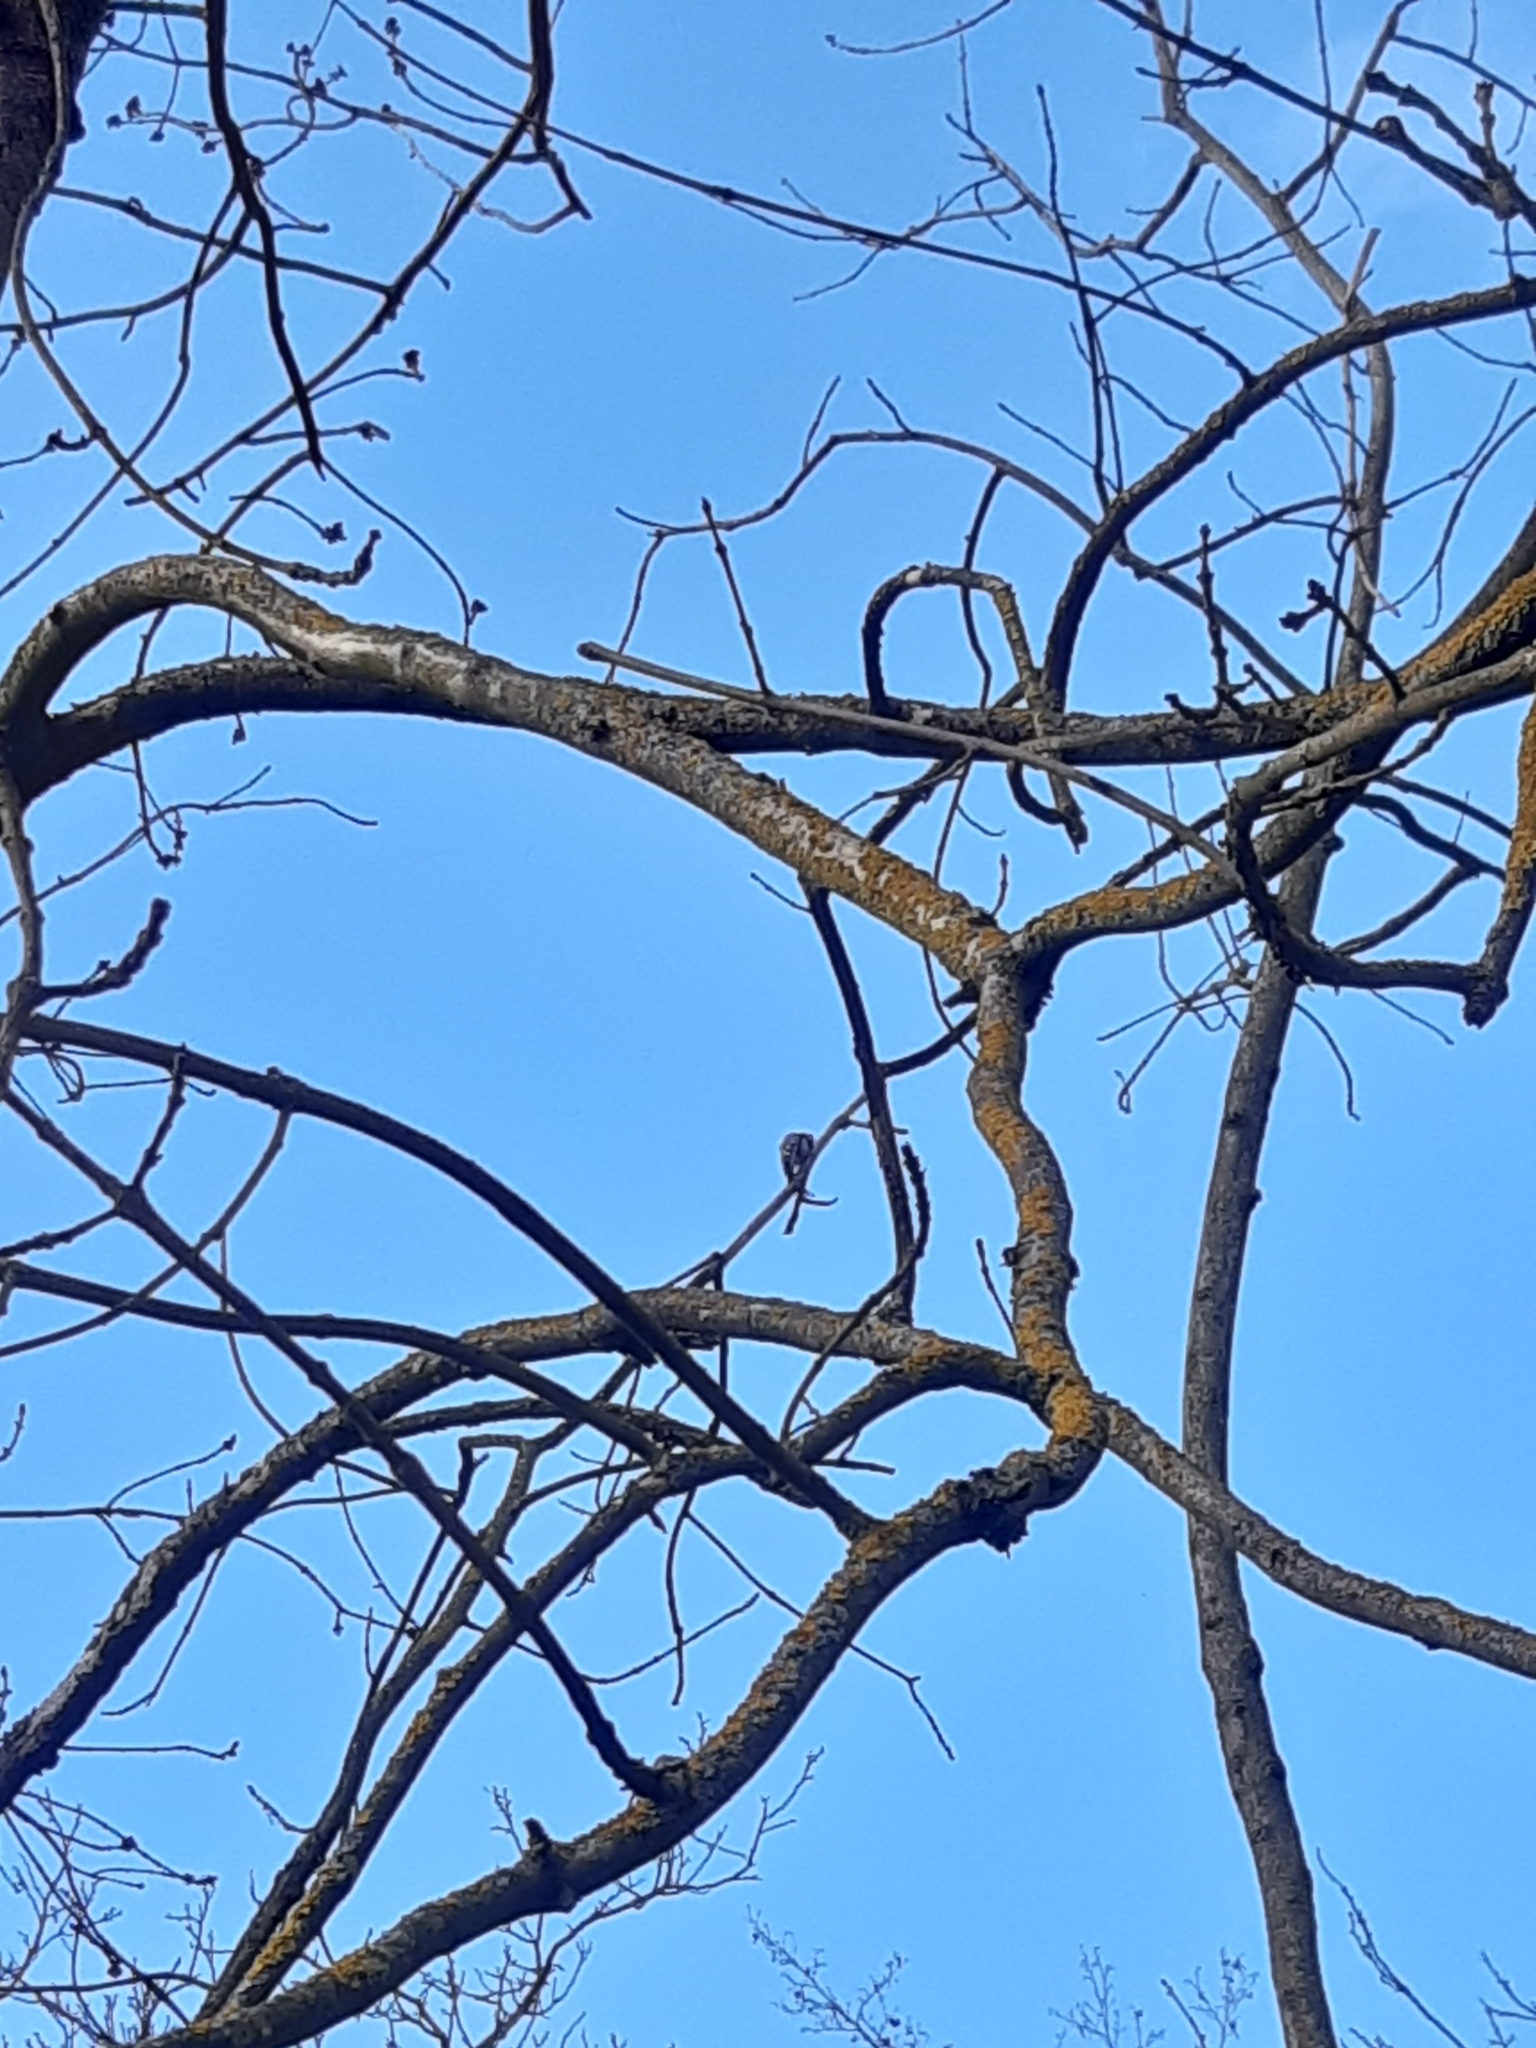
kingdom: Animalia
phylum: Chordata
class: Aves
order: Piciformes
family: Picidae
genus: Dryobates
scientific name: Dryobates minor
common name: Lesser spotted woodpecker
